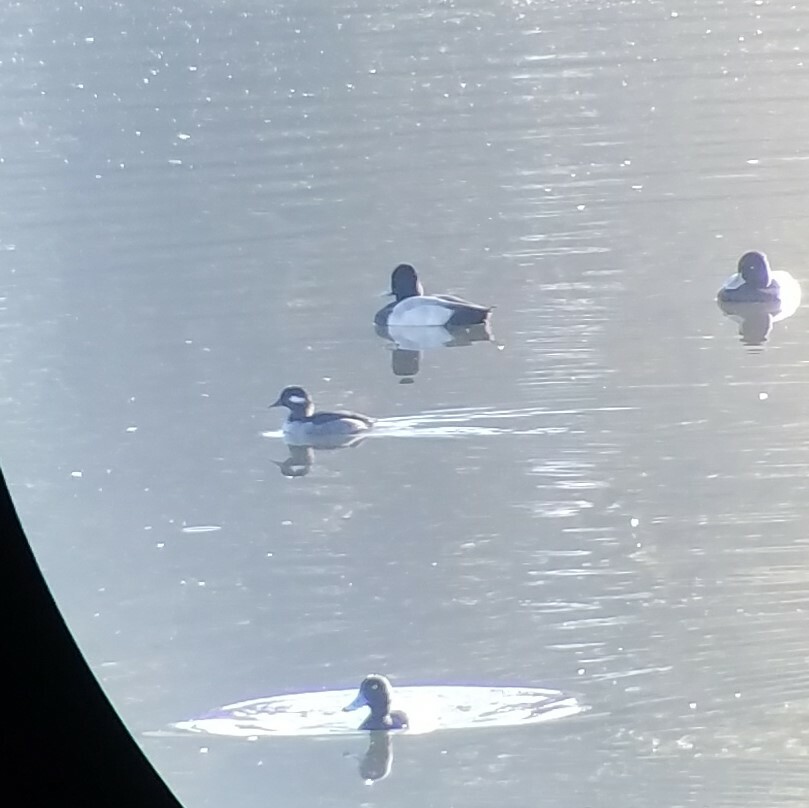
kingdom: Animalia
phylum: Chordata
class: Aves
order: Anseriformes
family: Anatidae
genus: Bucephala
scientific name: Bucephala albeola
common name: Bufflehead
